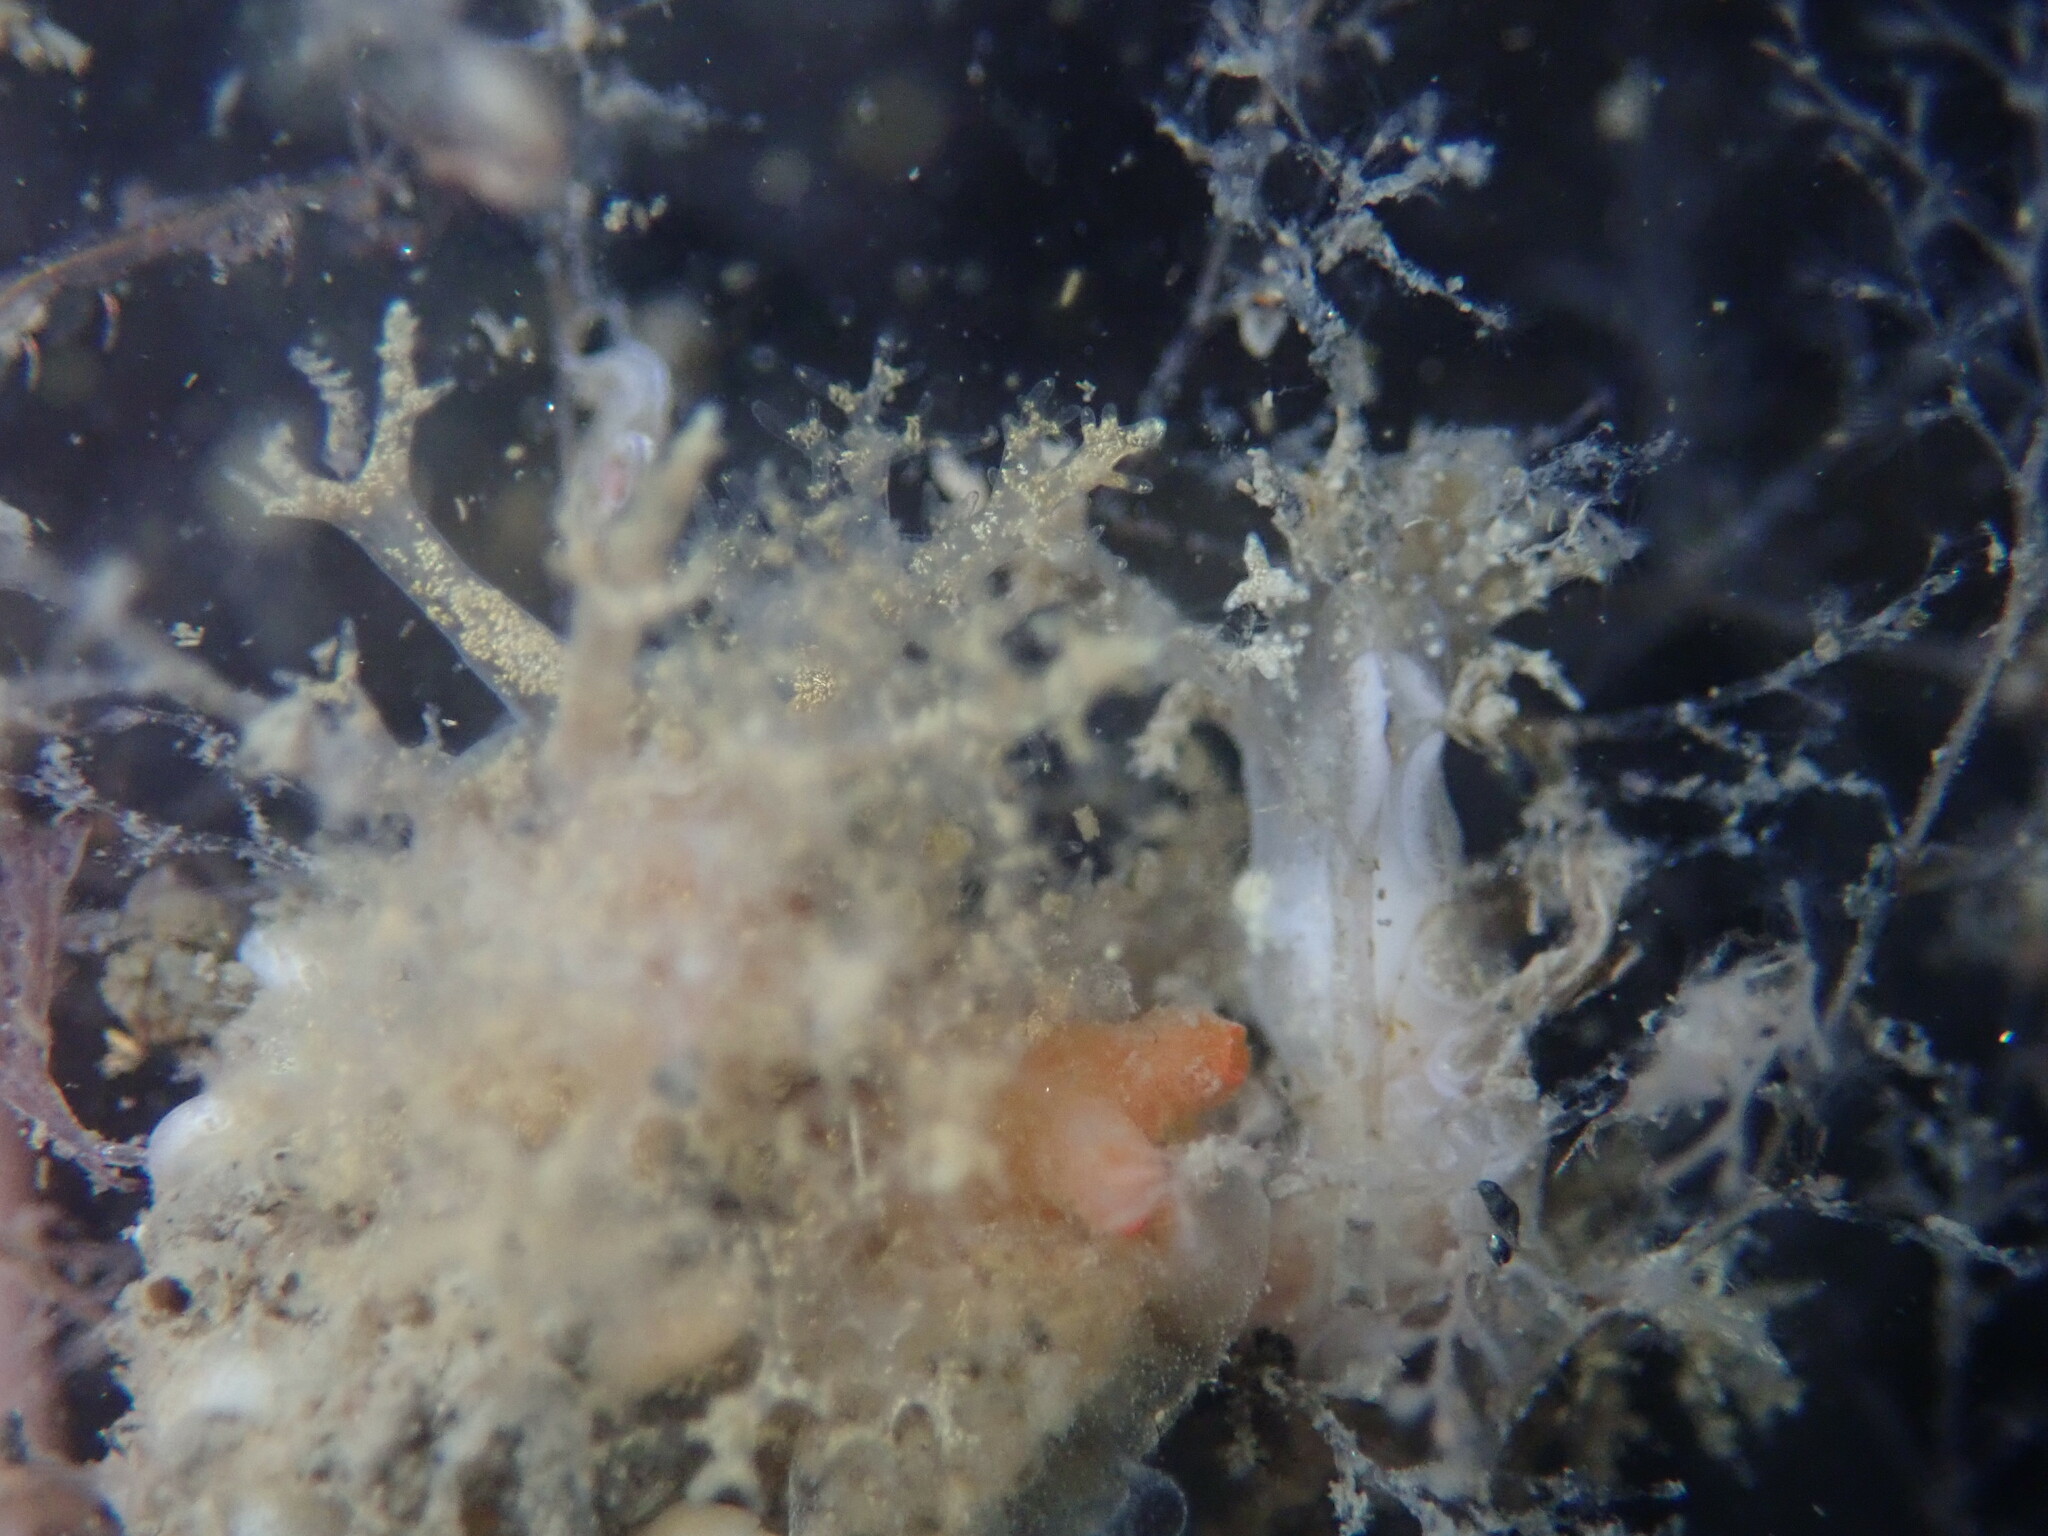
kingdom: Animalia
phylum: Mollusca
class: Gastropoda
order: Nudibranchia
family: Dendronotidae
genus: Dendronotus
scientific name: Dendronotus venustus
